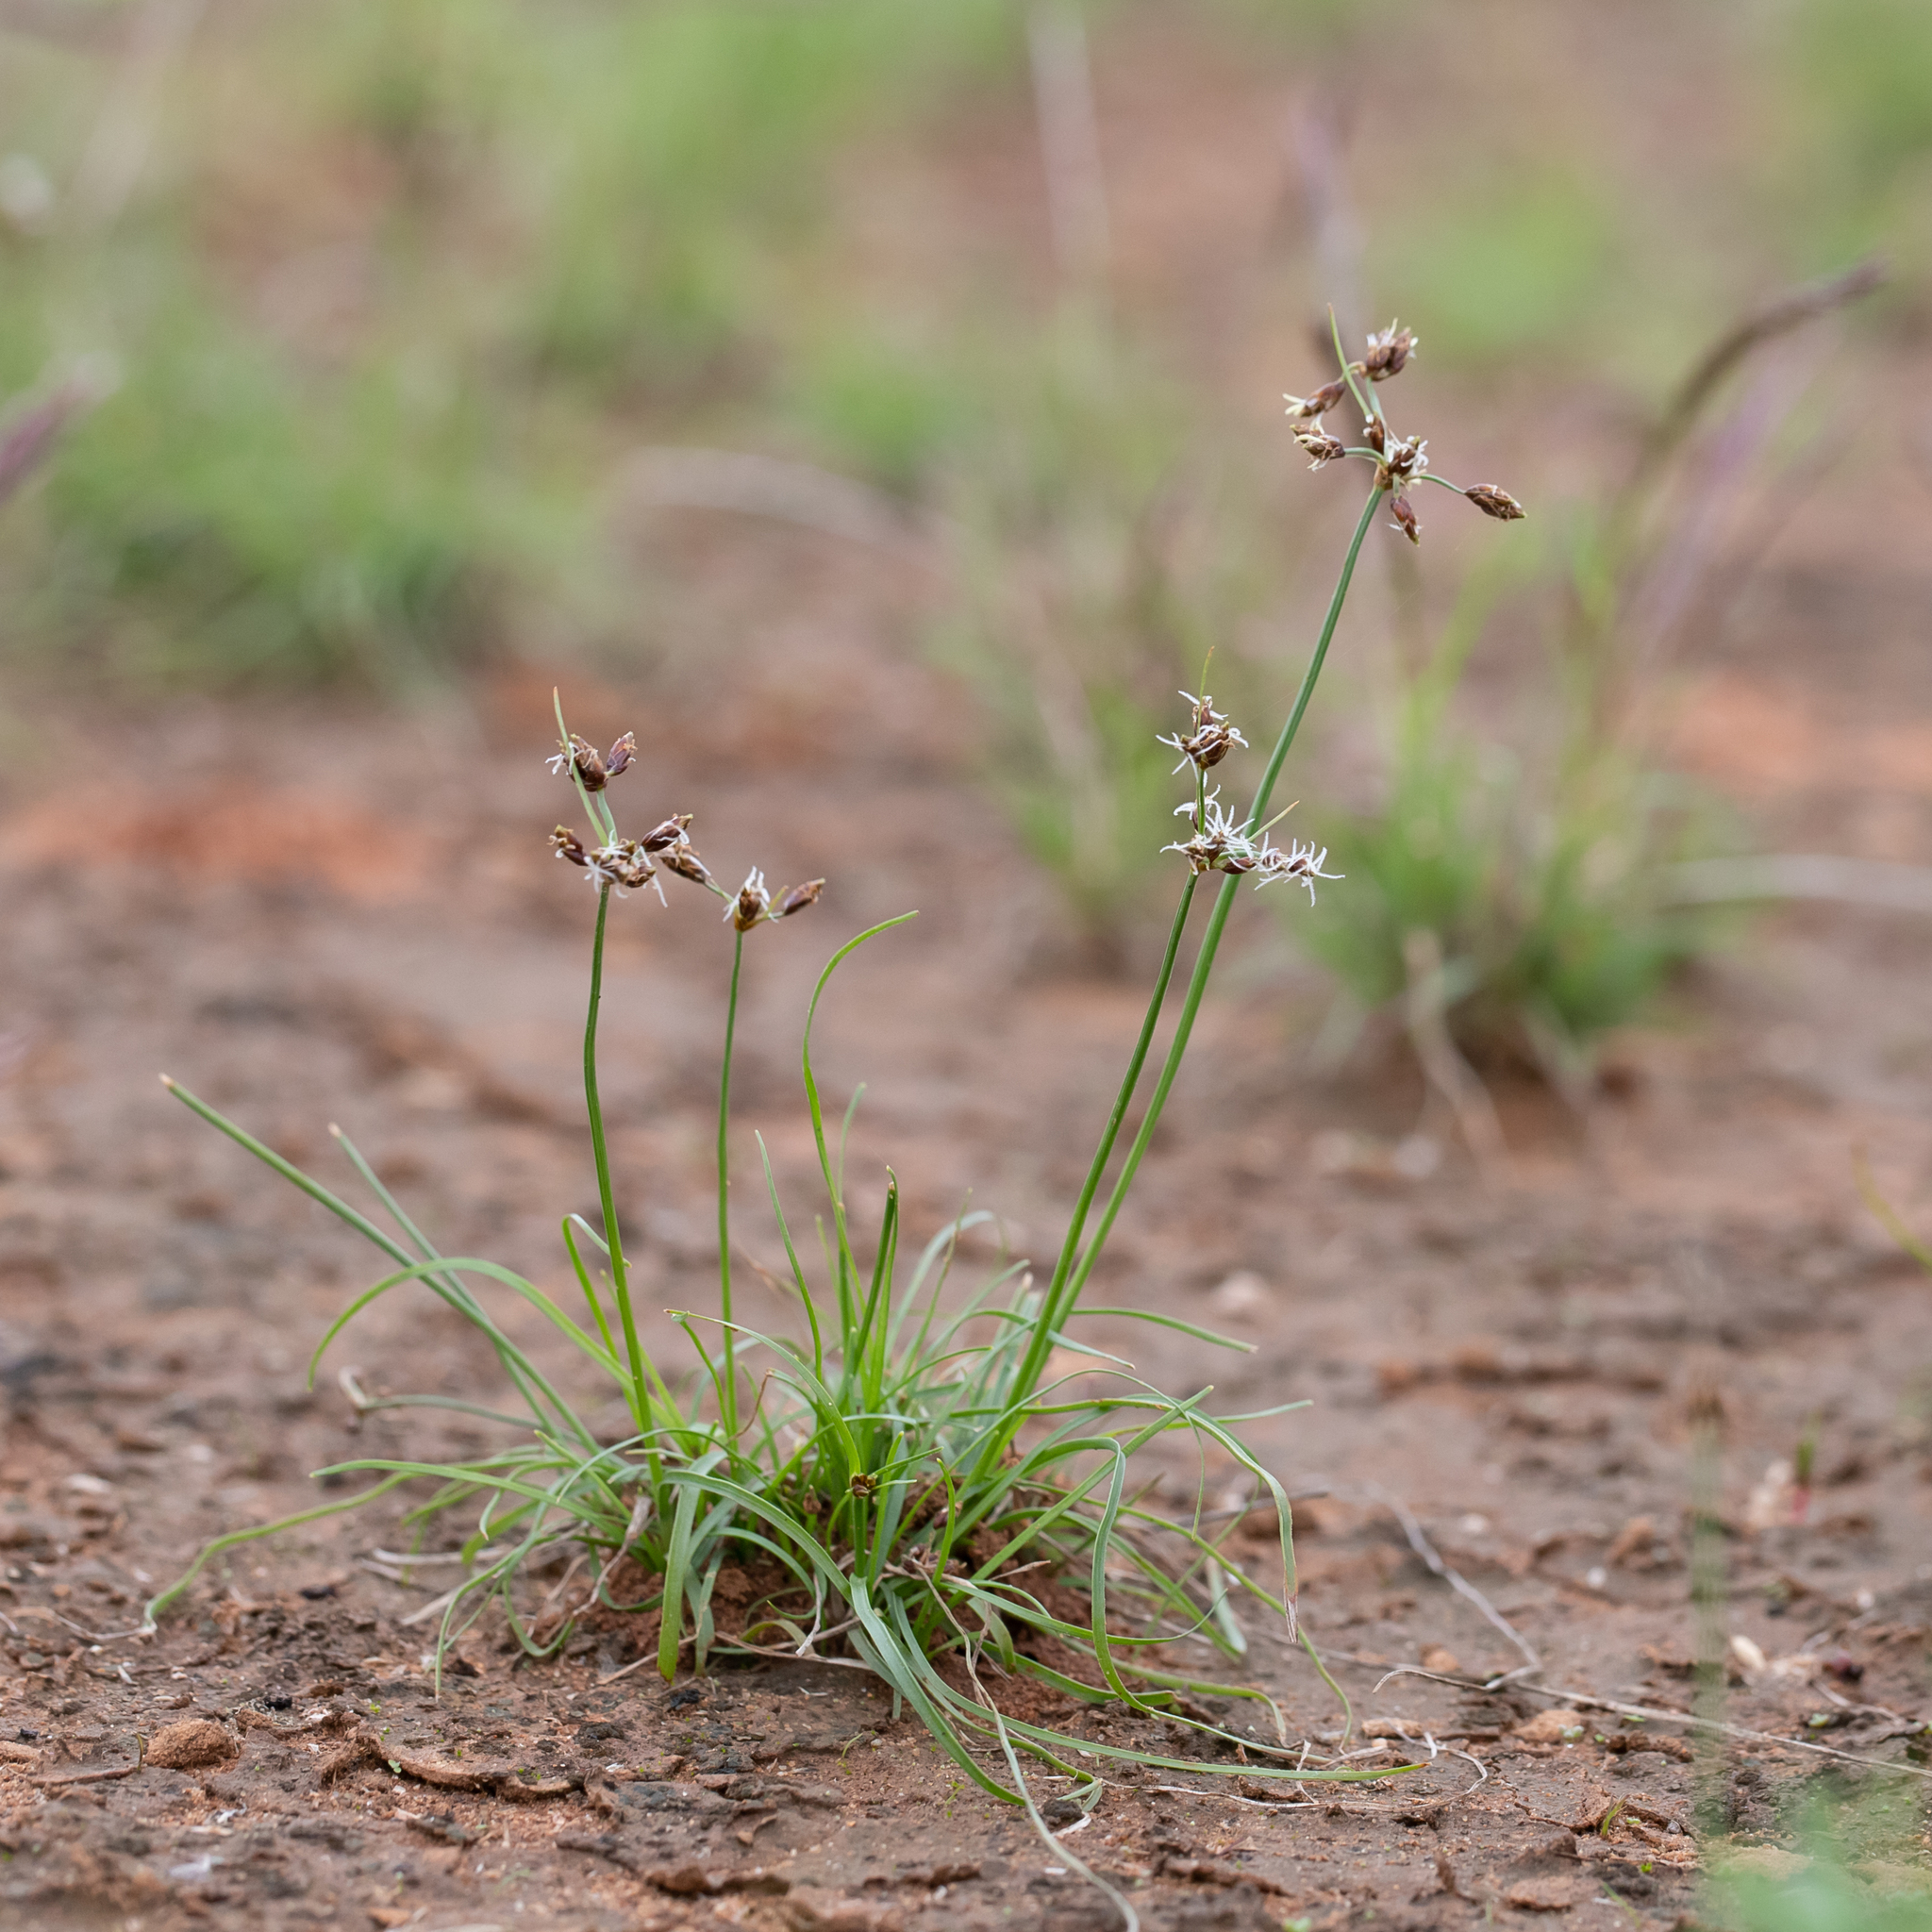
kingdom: Plantae
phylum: Tracheophyta
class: Liliopsida
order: Poales
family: Cyperaceae
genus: Fimbristylis
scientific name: Fimbristylis dichotoma
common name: Forked fimbry
